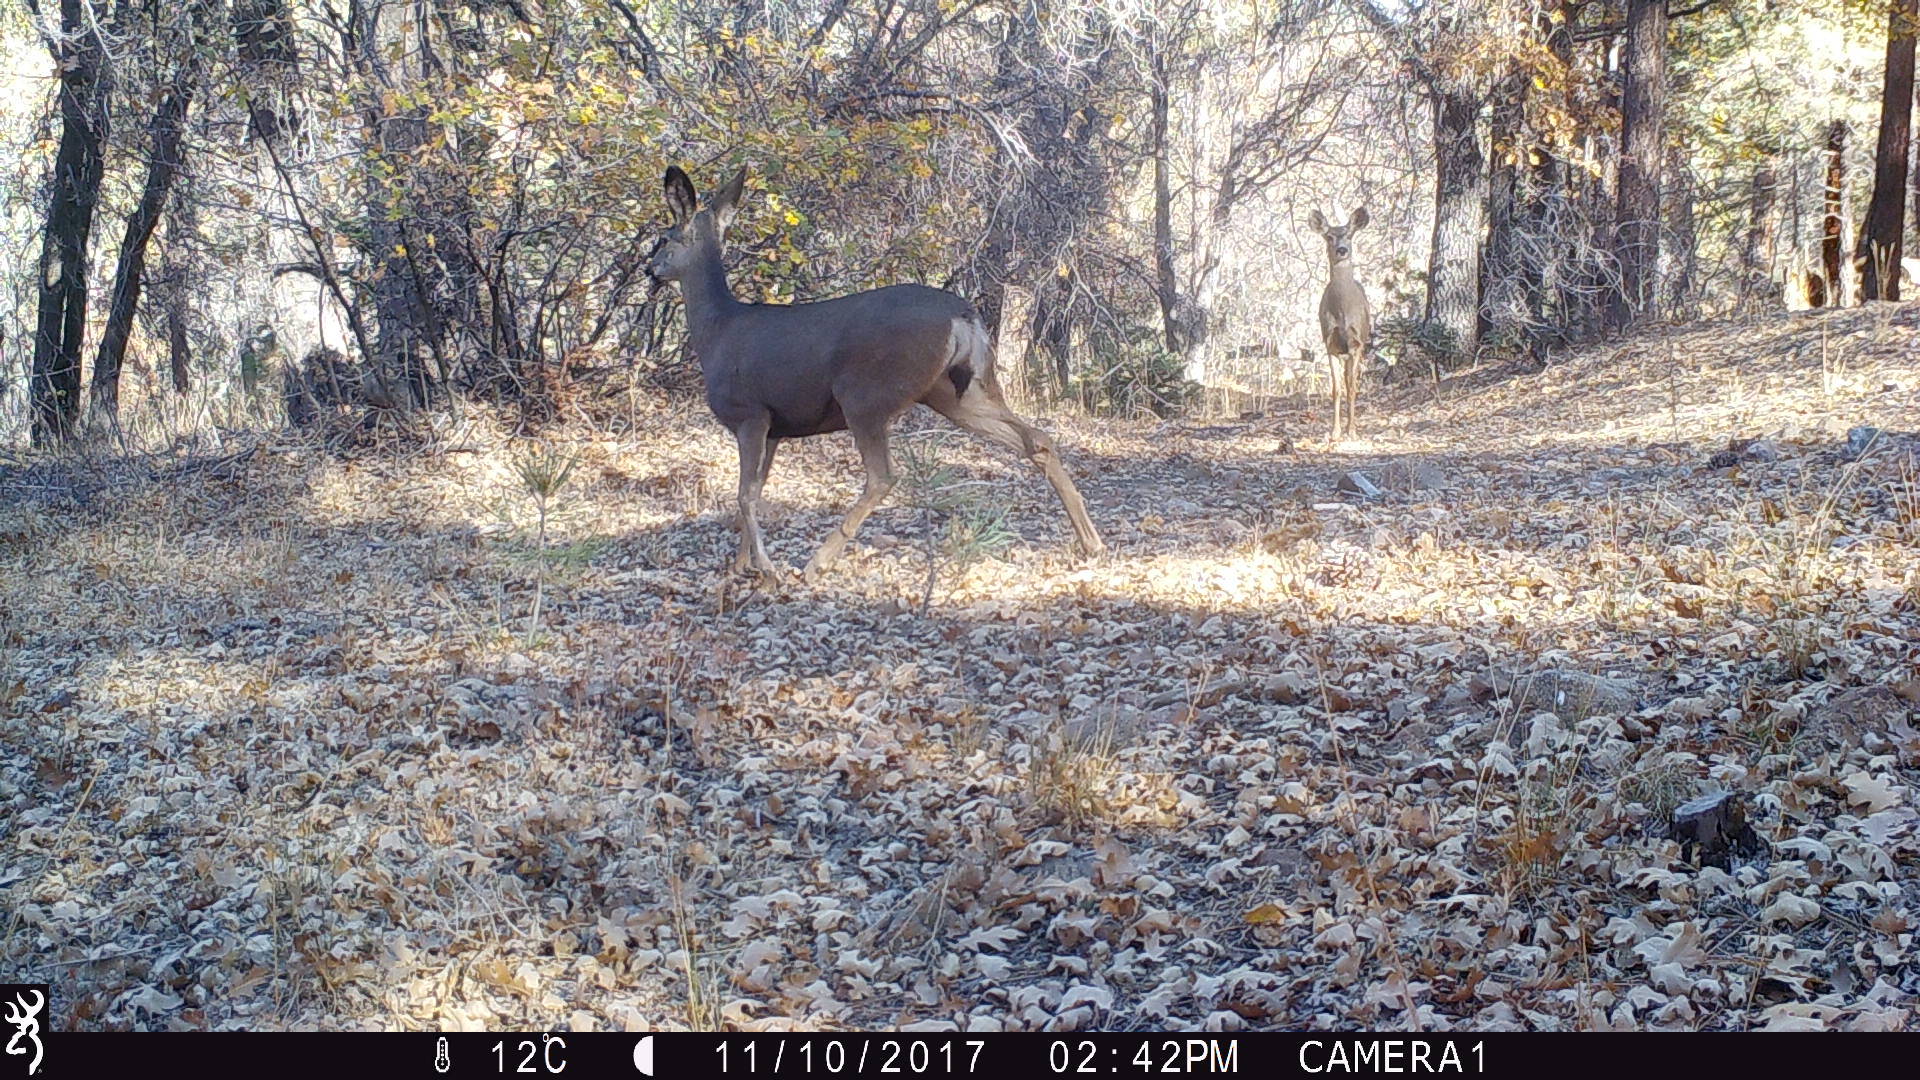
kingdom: Animalia
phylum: Chordata
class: Mammalia
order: Artiodactyla
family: Cervidae
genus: Odocoileus
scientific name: Odocoileus hemionus
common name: Mule deer
